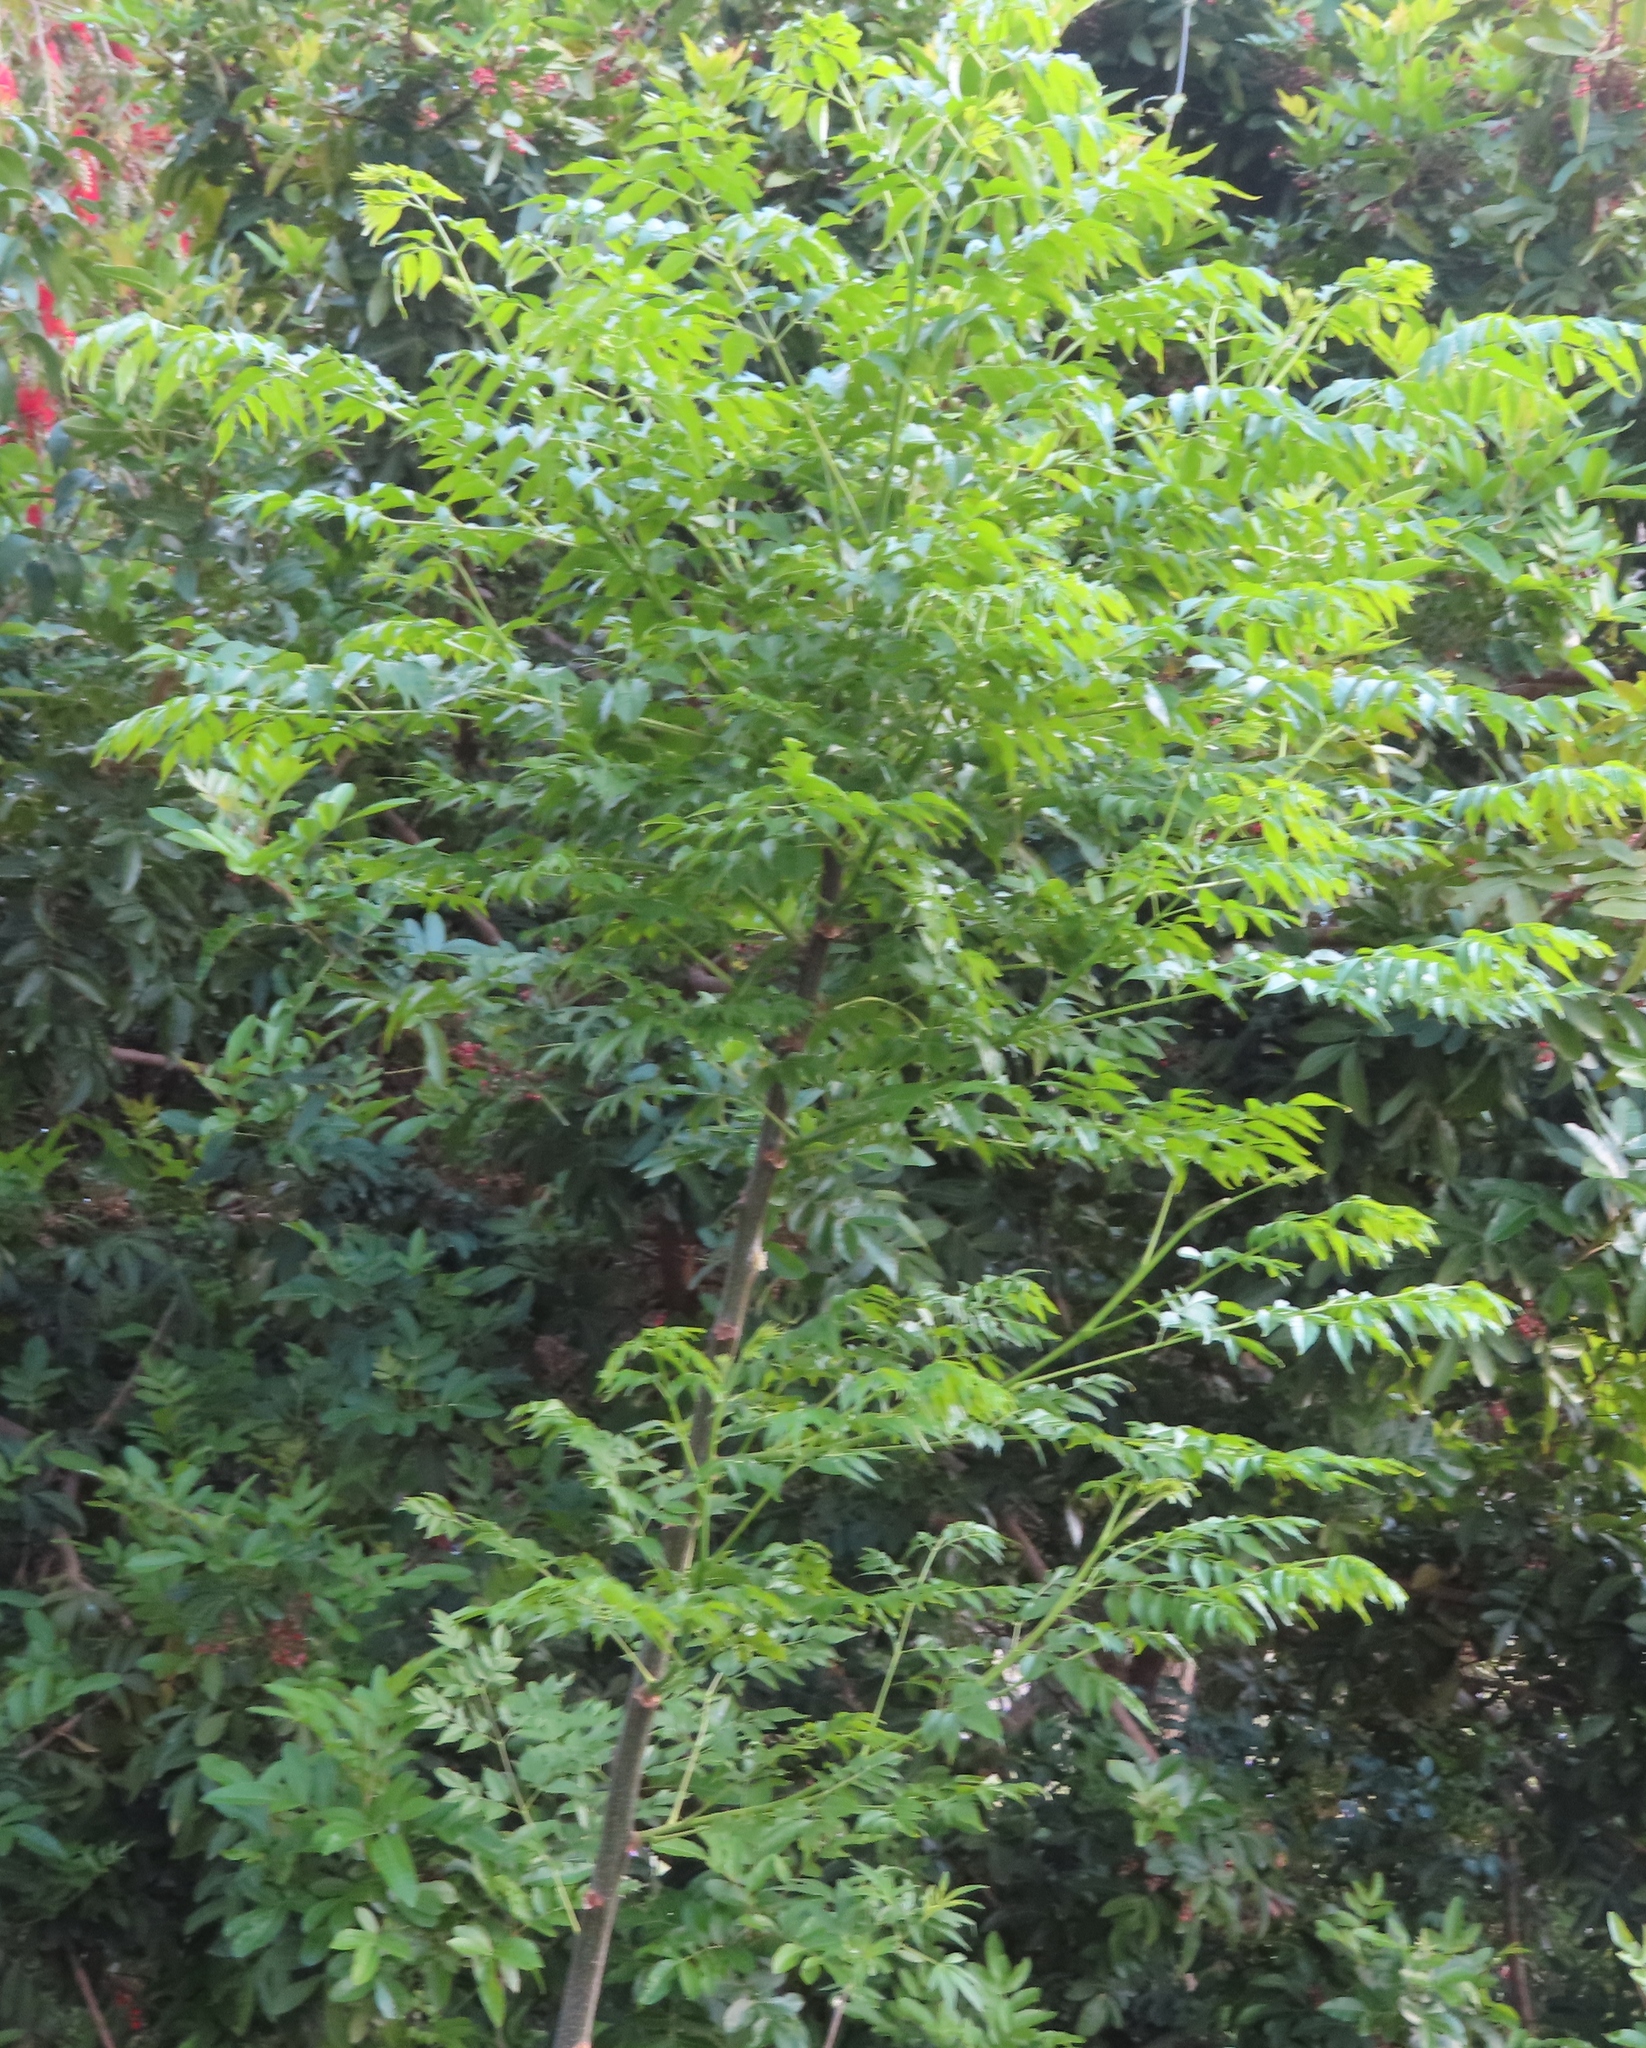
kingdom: Plantae
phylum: Tracheophyta
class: Magnoliopsida
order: Sapindales
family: Meliaceae
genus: Melia
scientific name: Melia azedarach
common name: Chinaberrytree
